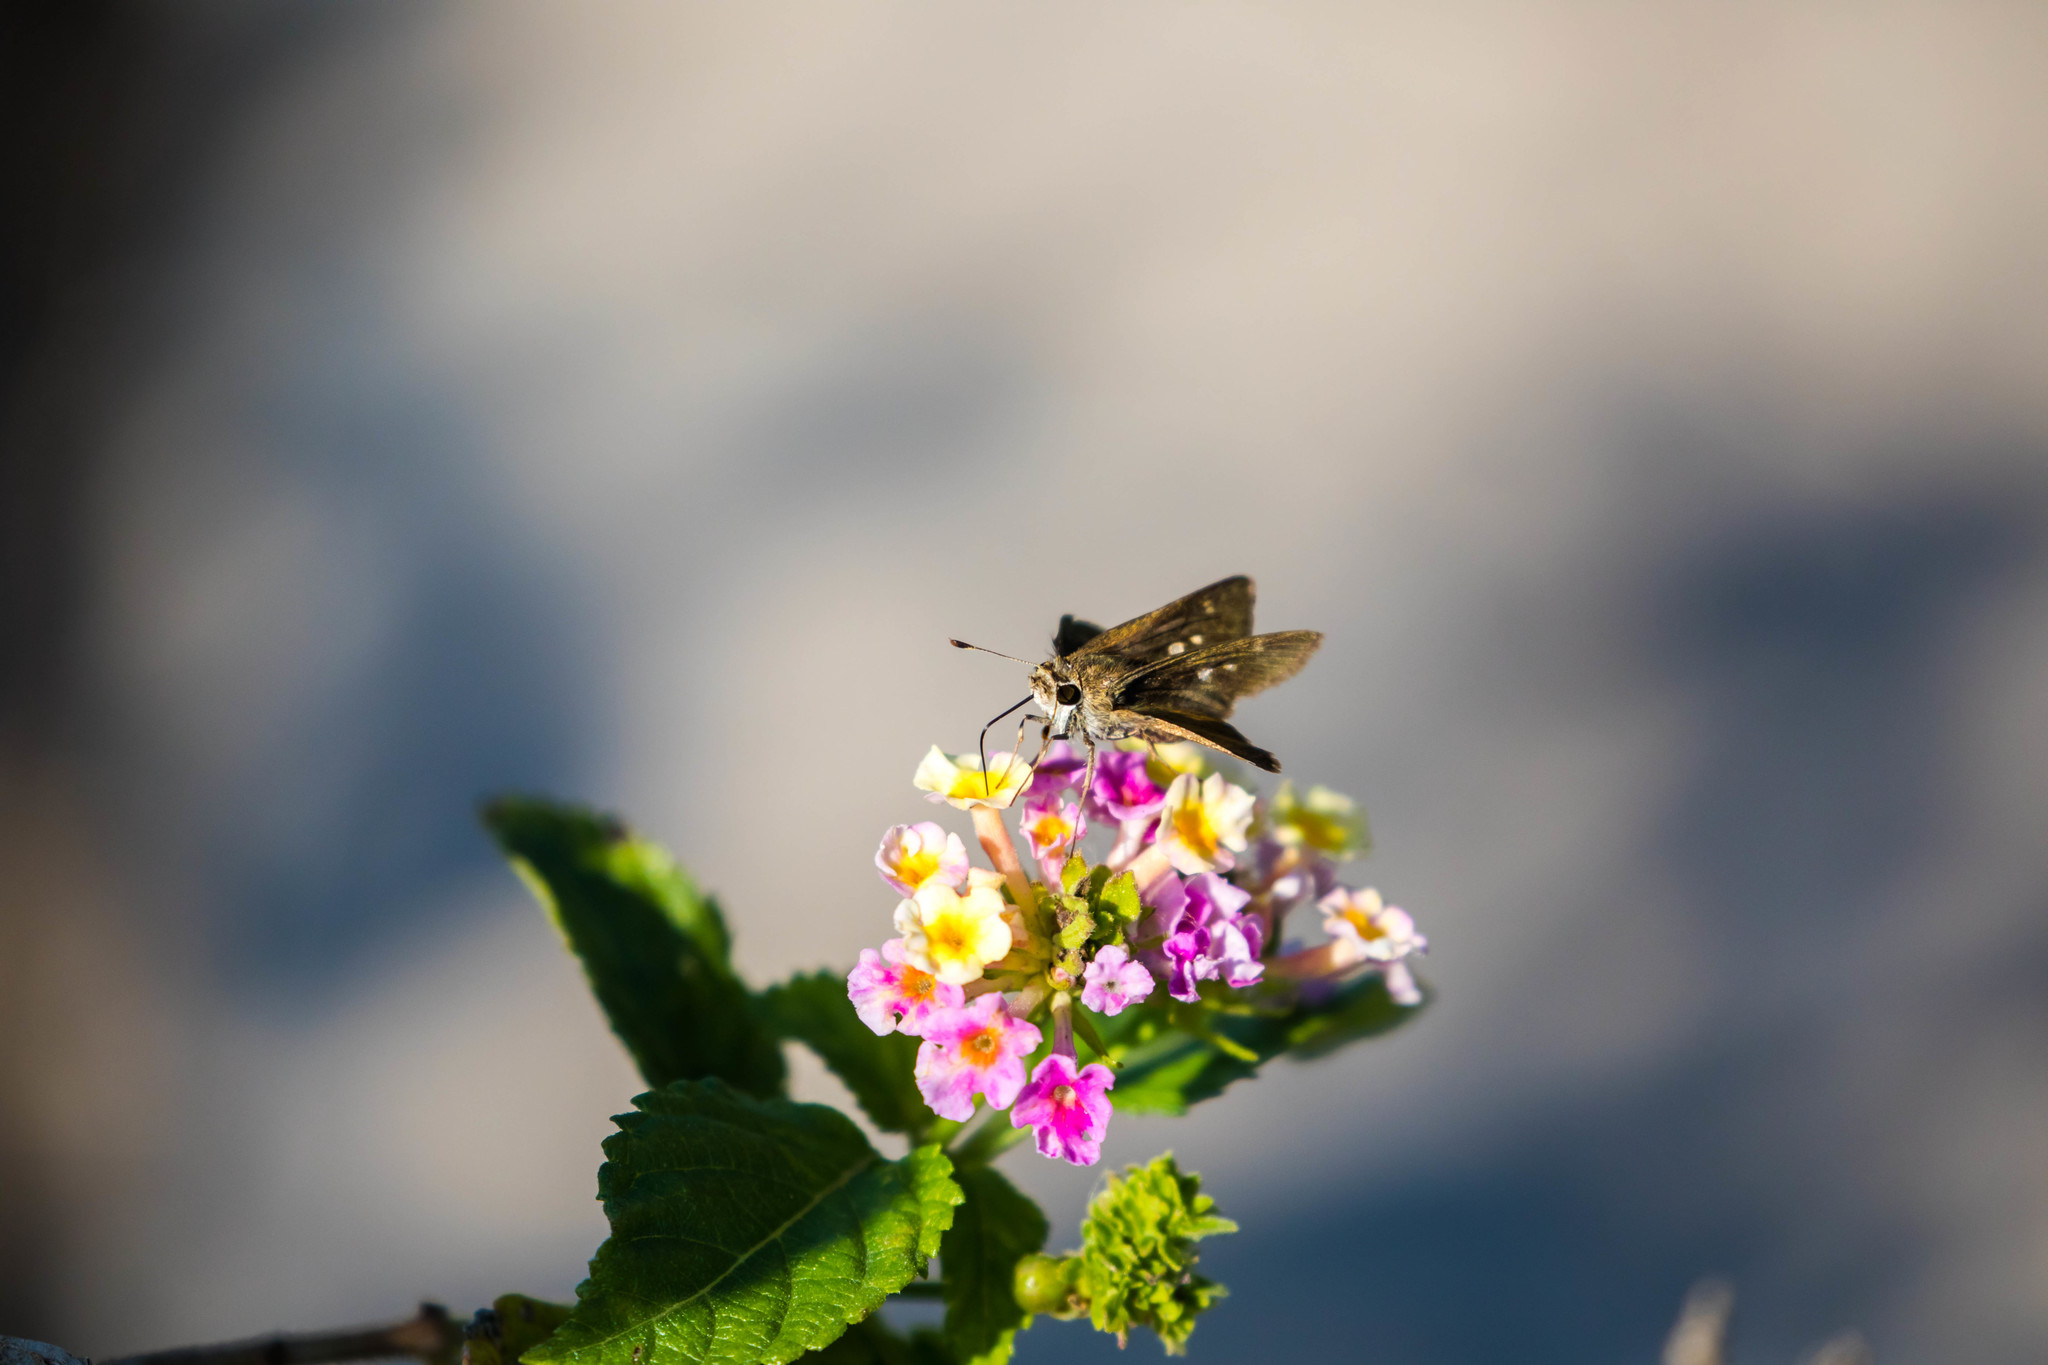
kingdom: Animalia
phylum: Arthropoda
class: Insecta
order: Lepidoptera
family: Hesperiidae
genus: Polites
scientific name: Polites vibex
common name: Whirlabout
